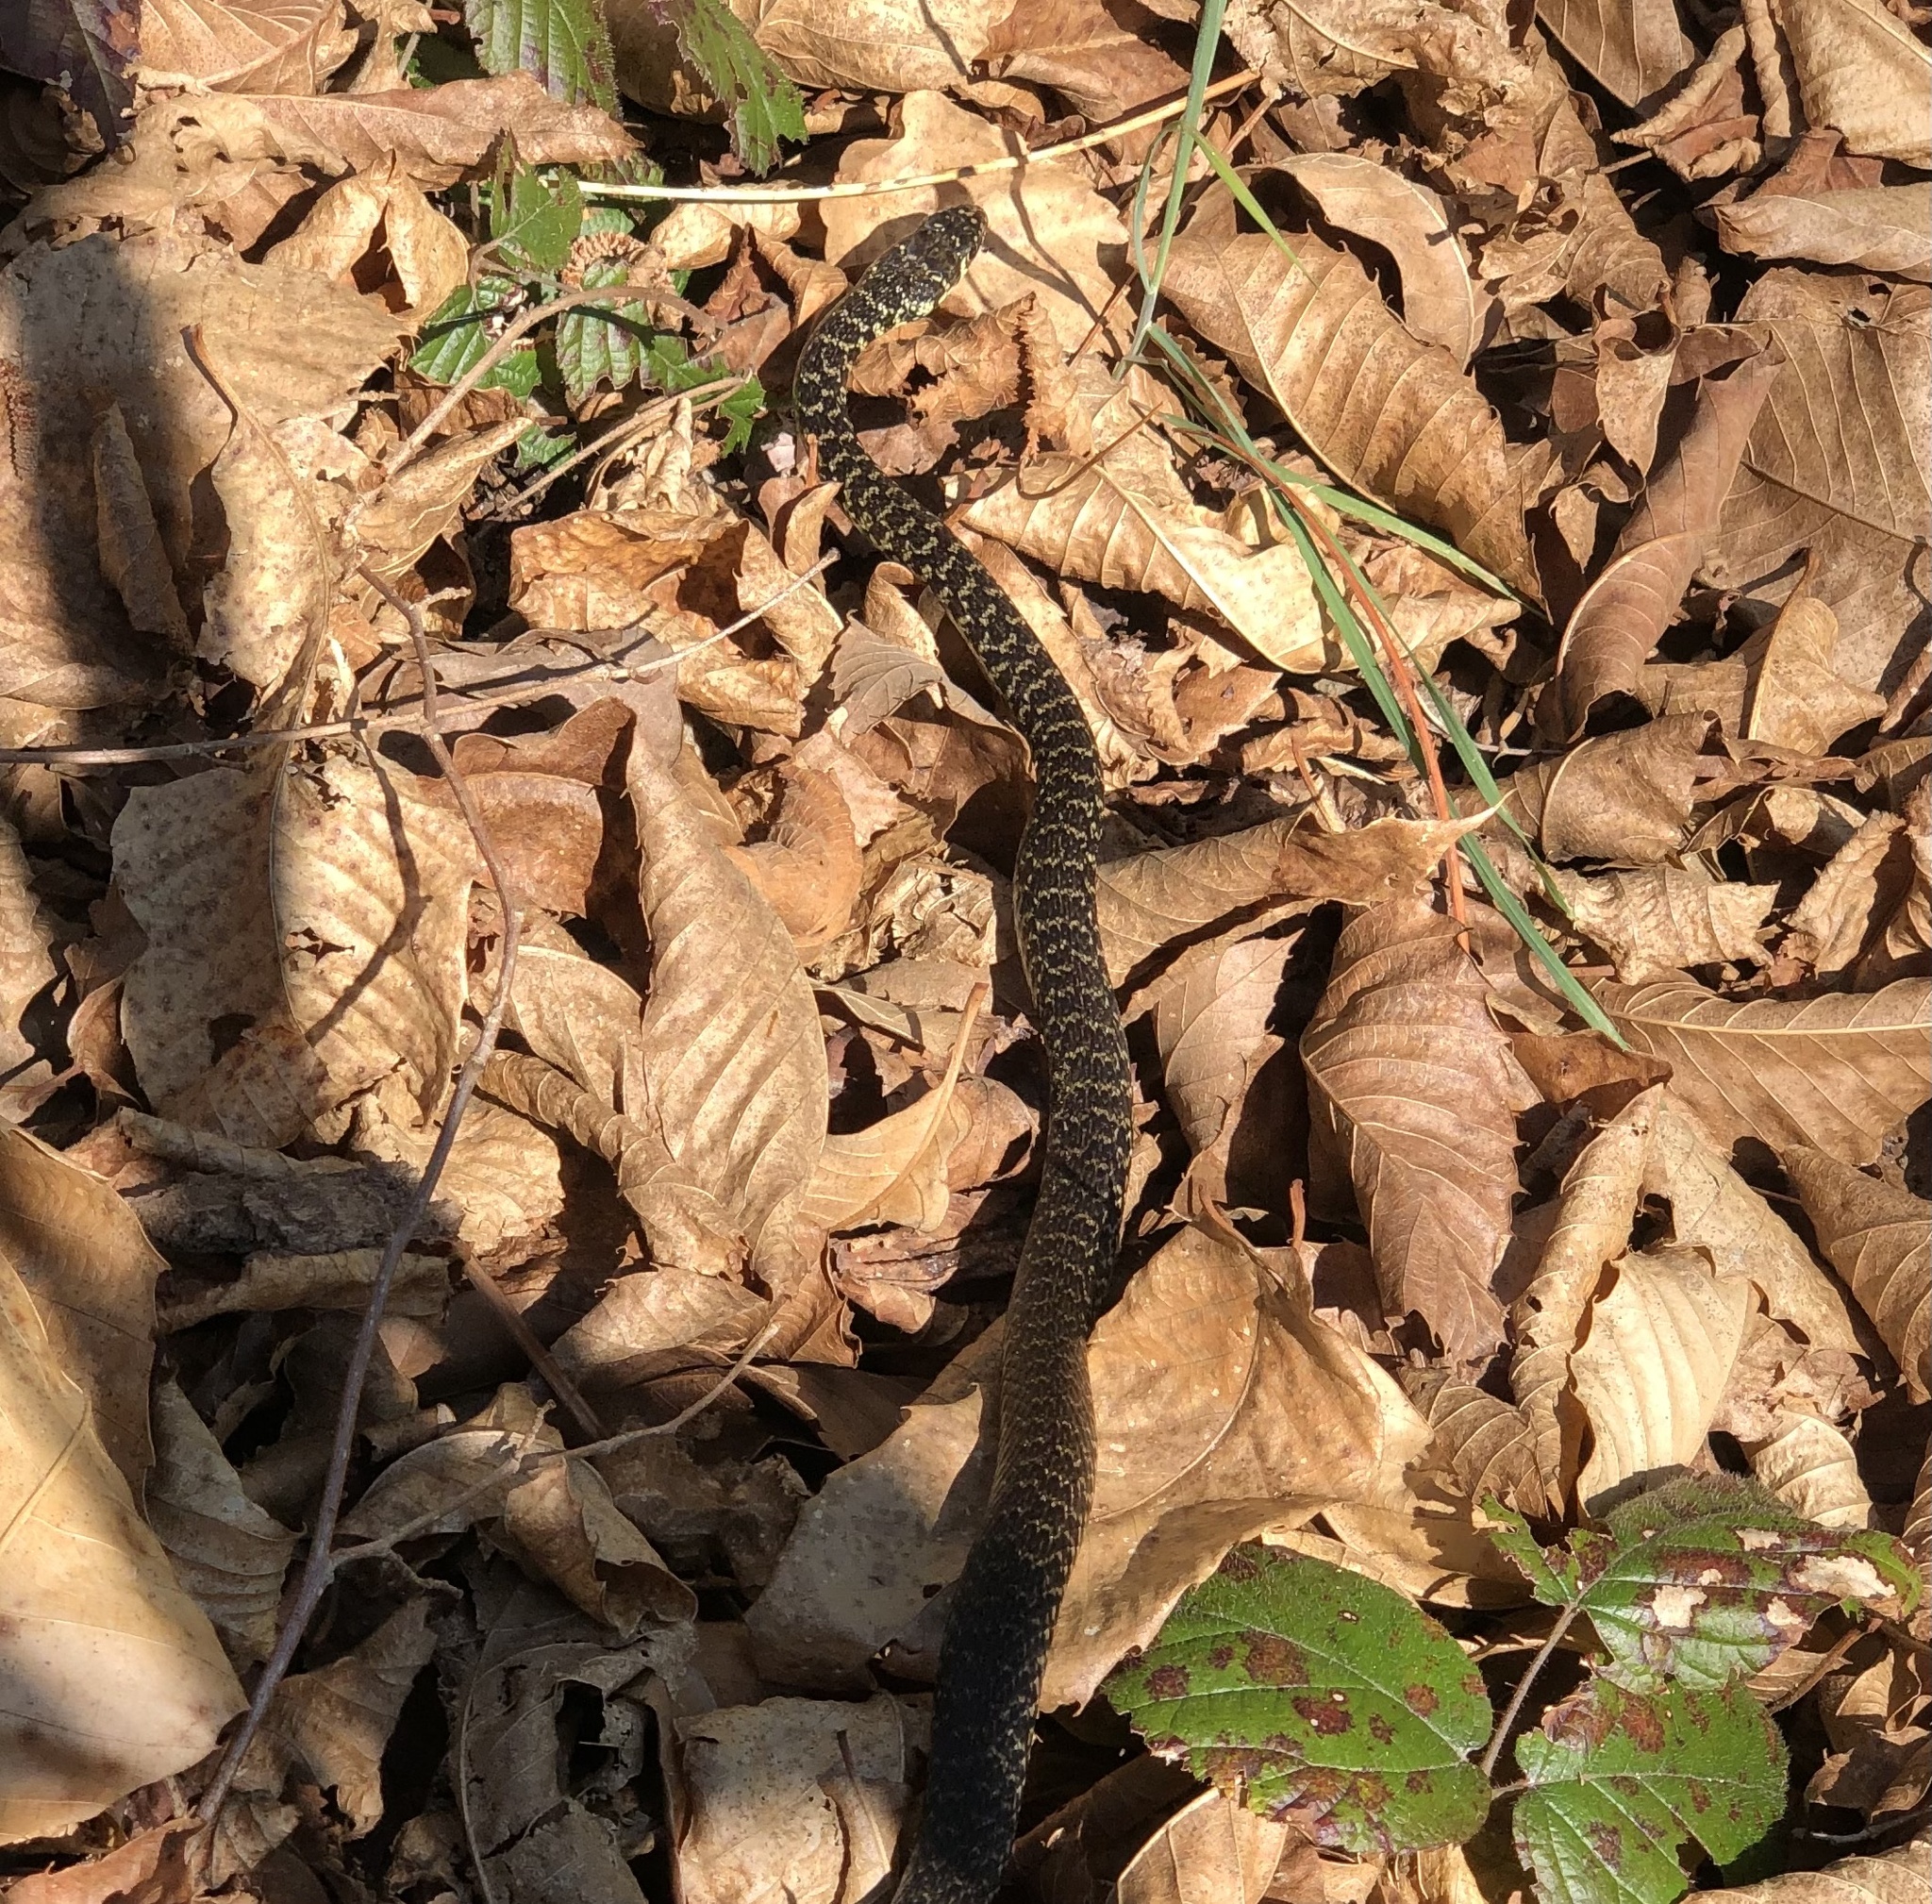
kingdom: Animalia
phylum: Chordata
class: Squamata
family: Colubridae
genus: Hierophis
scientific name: Hierophis viridiflavus
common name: Green whip snake
